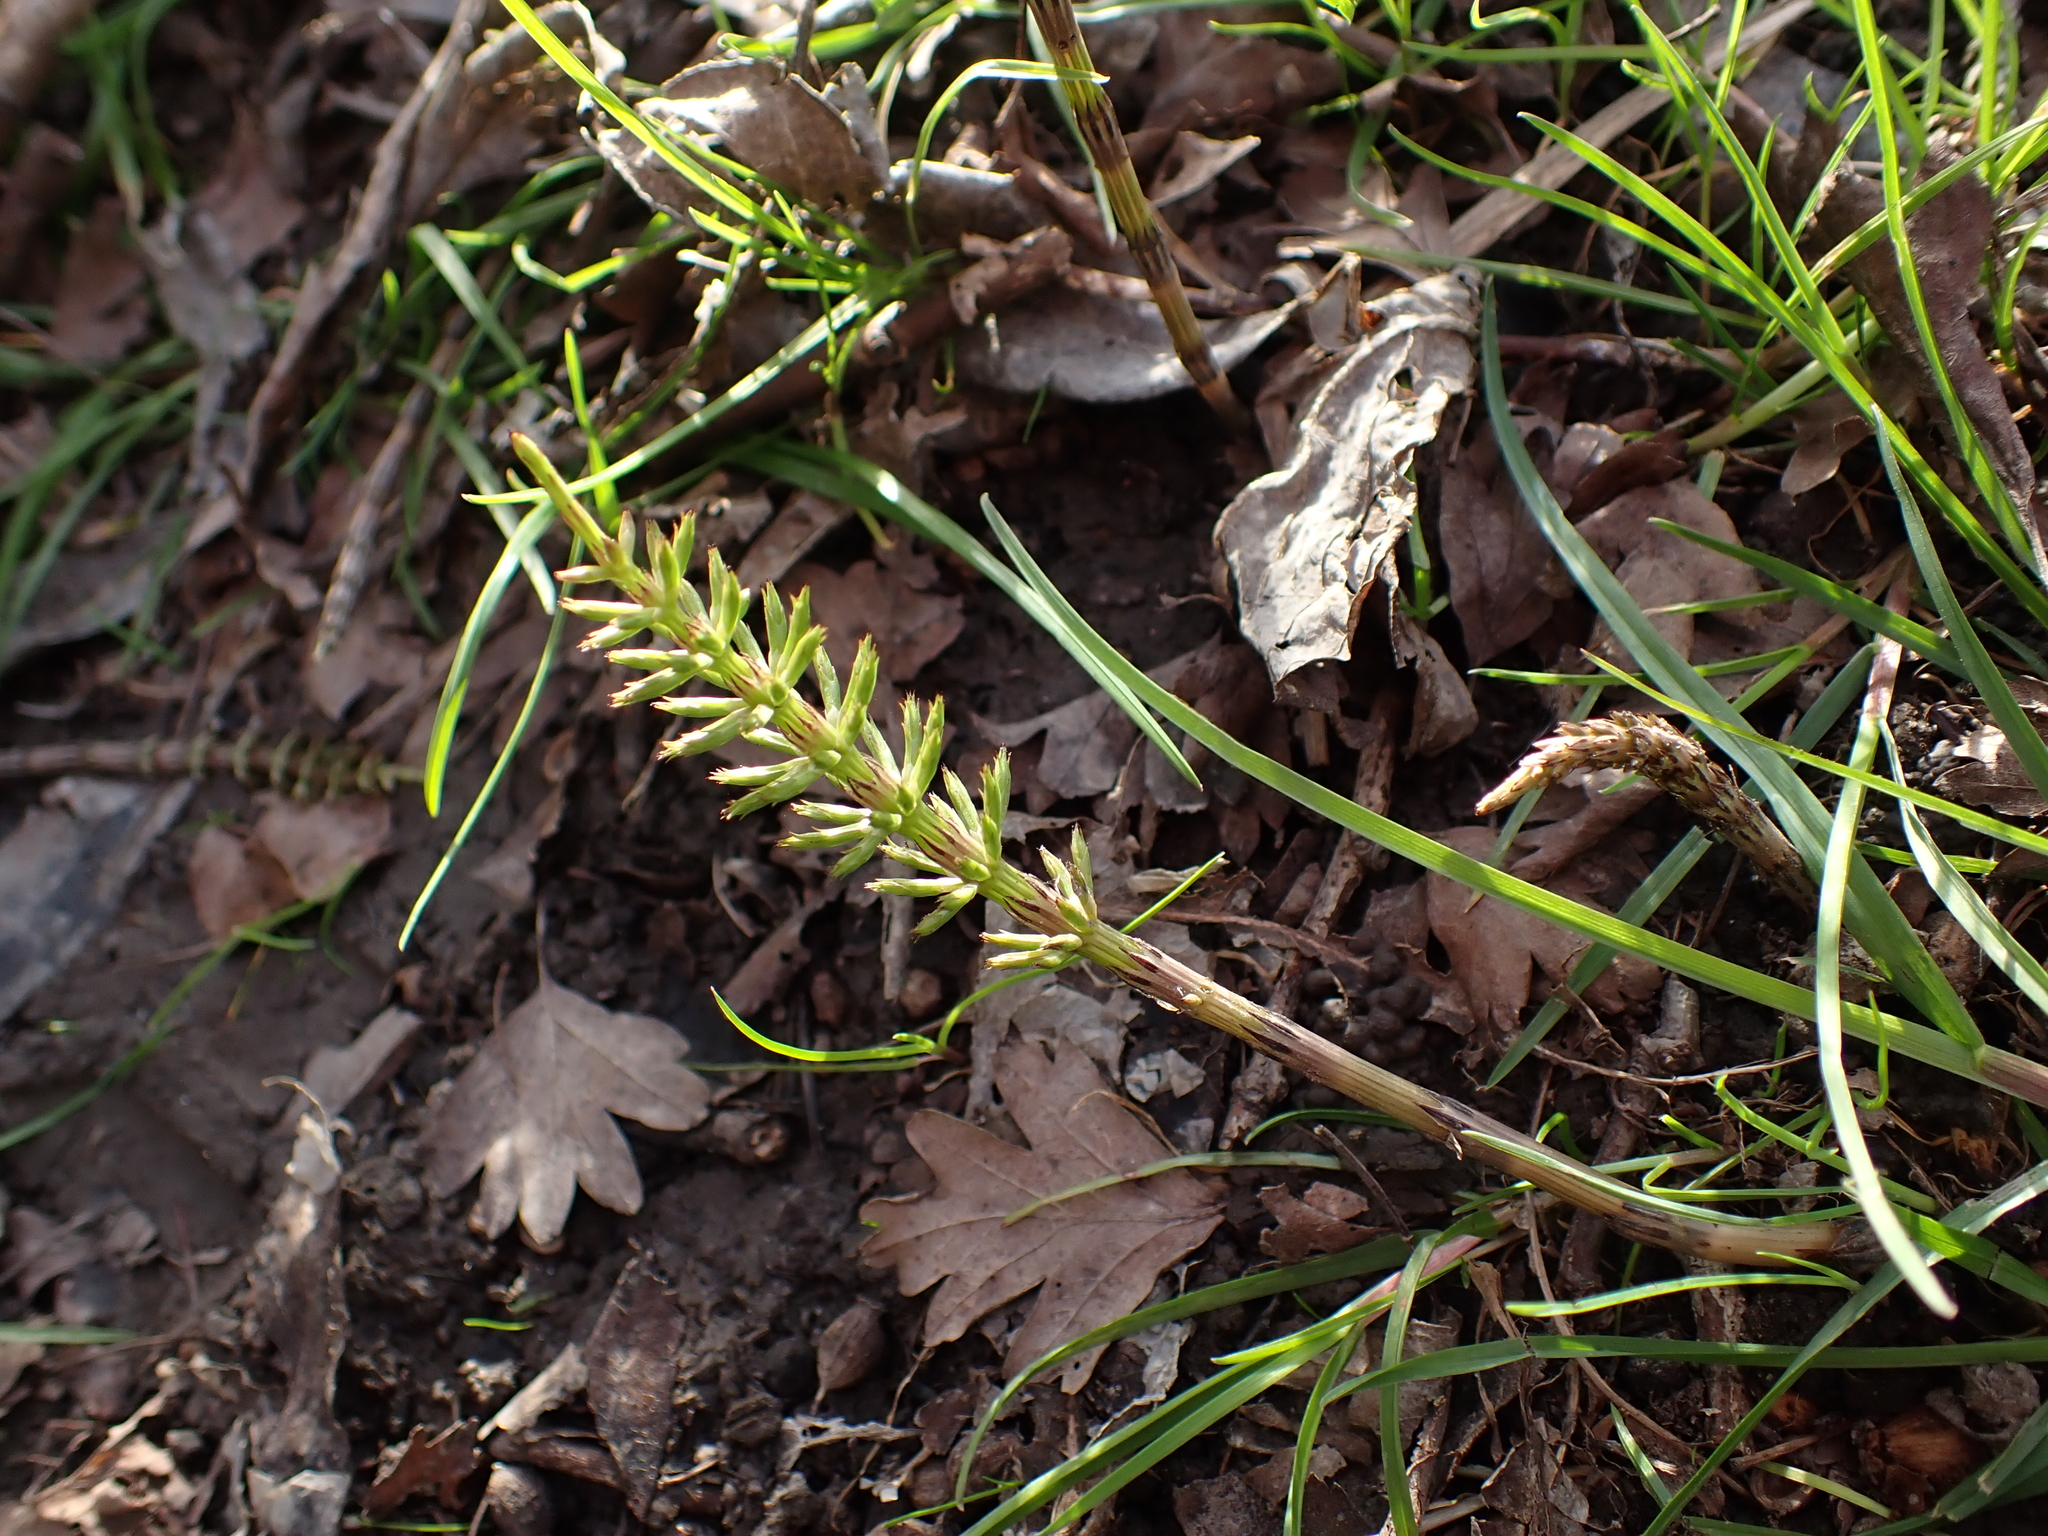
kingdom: Plantae
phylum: Tracheophyta
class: Polypodiopsida
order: Equisetales
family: Equisetaceae
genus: Equisetum
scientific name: Equisetum arvense
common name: Field horsetail
